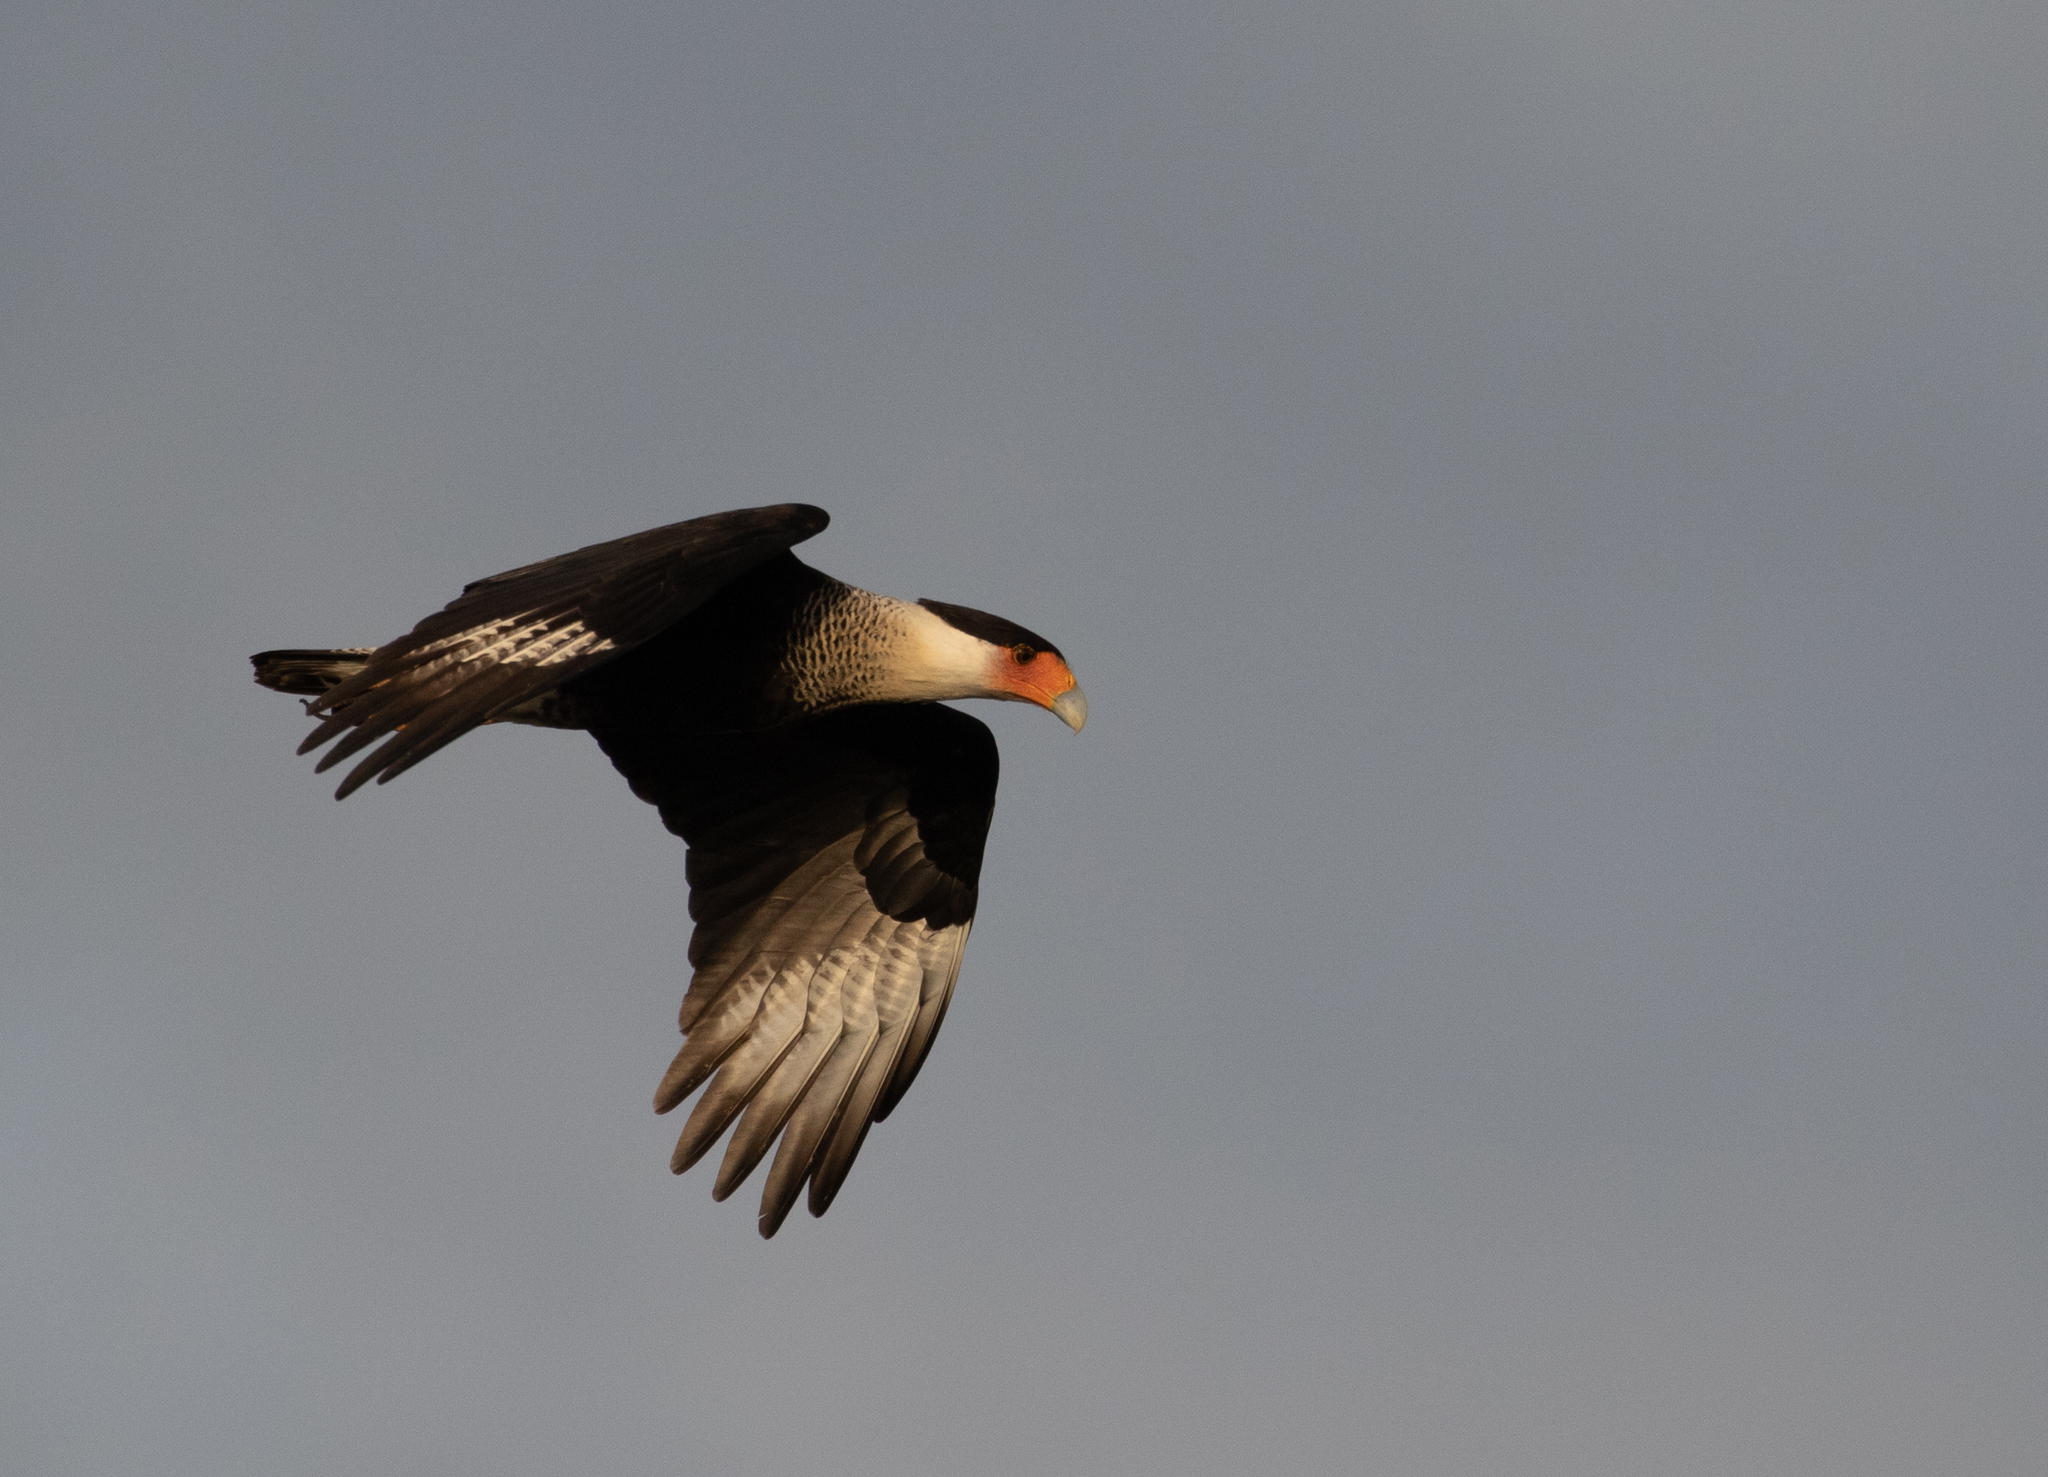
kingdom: Animalia
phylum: Chordata
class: Aves
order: Falconiformes
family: Falconidae
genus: Caracara
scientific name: Caracara plancus
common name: Southern caracara
